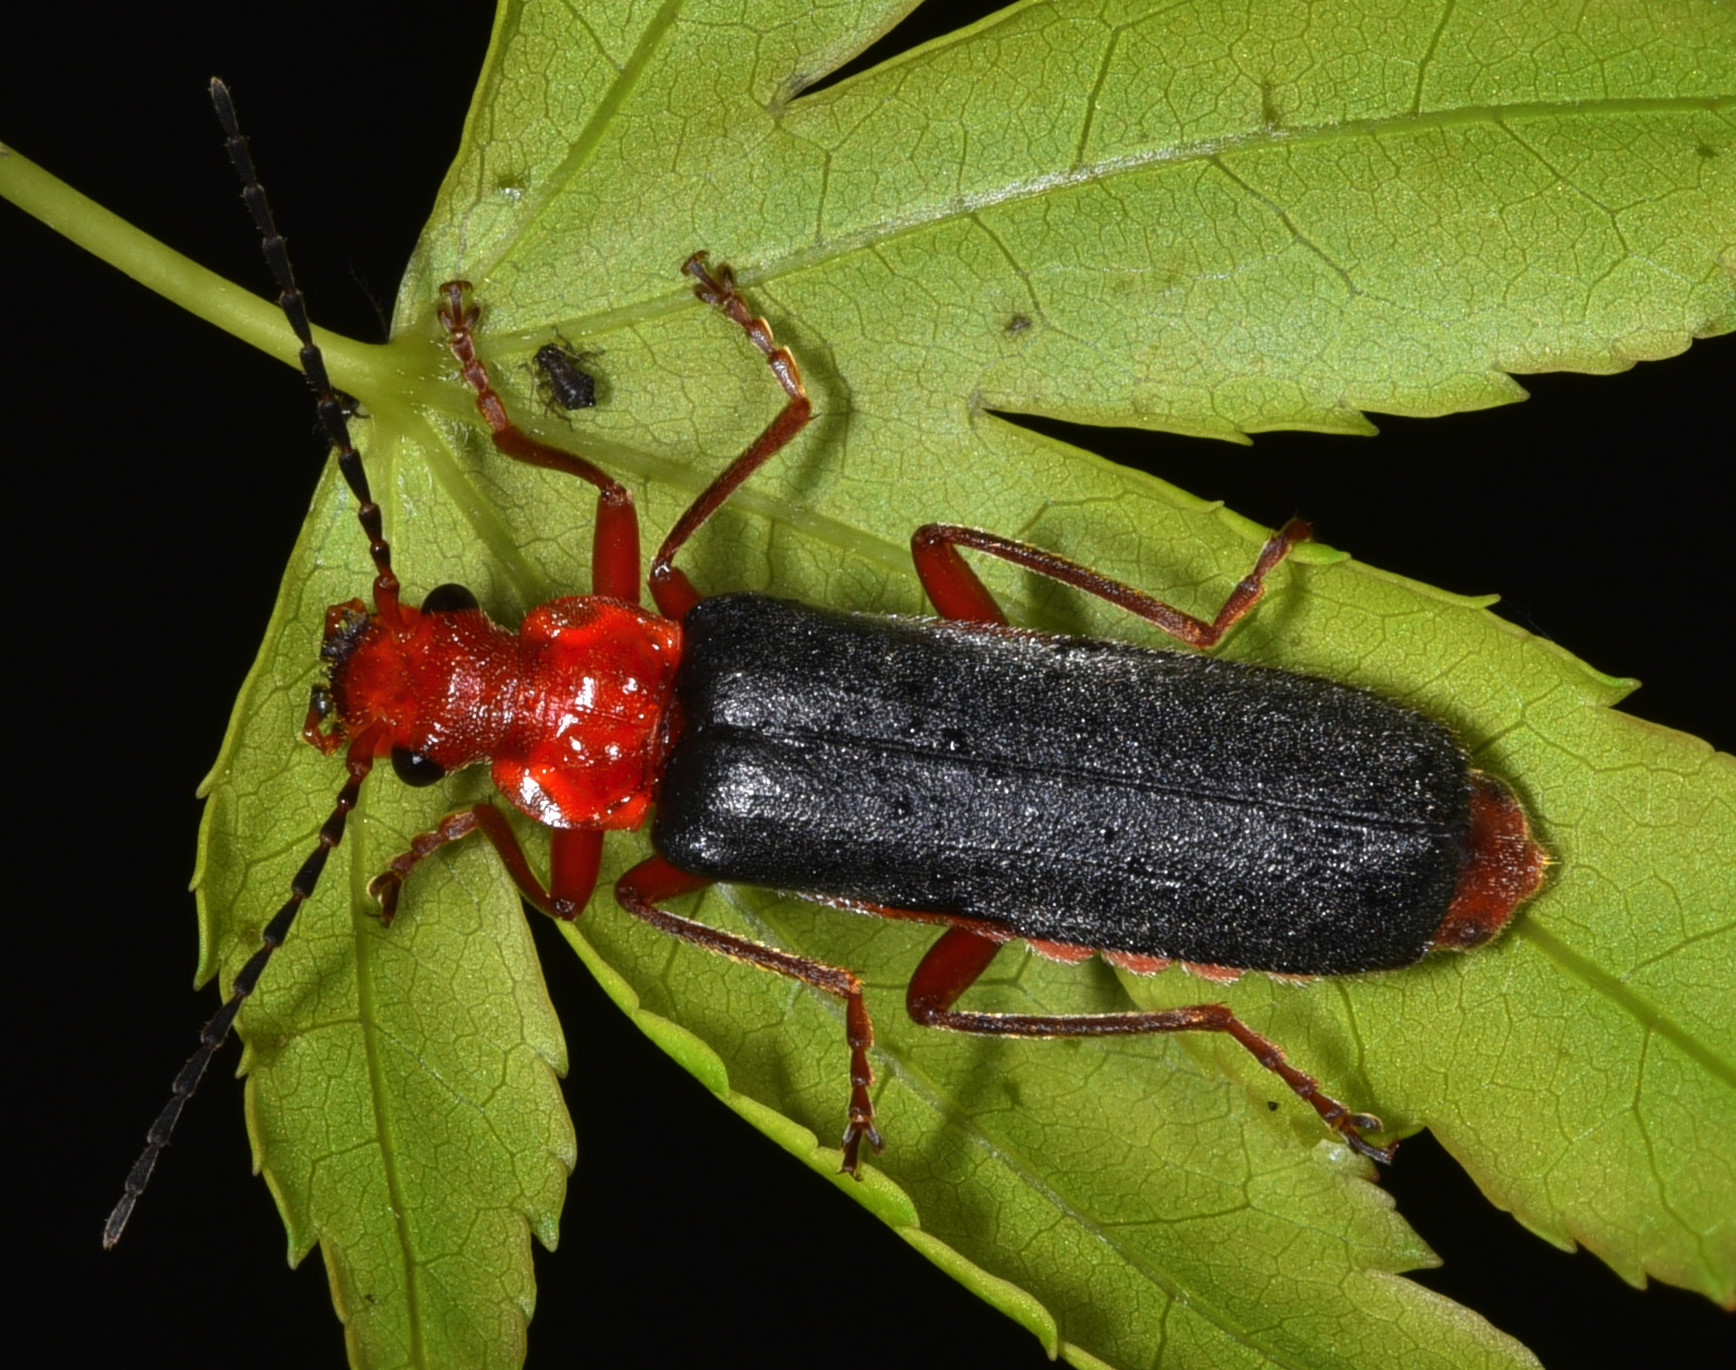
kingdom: Animalia
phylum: Arthropoda
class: Insecta
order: Coleoptera
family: Cantharidae
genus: Podabrus
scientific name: Podabrus pruinosus
